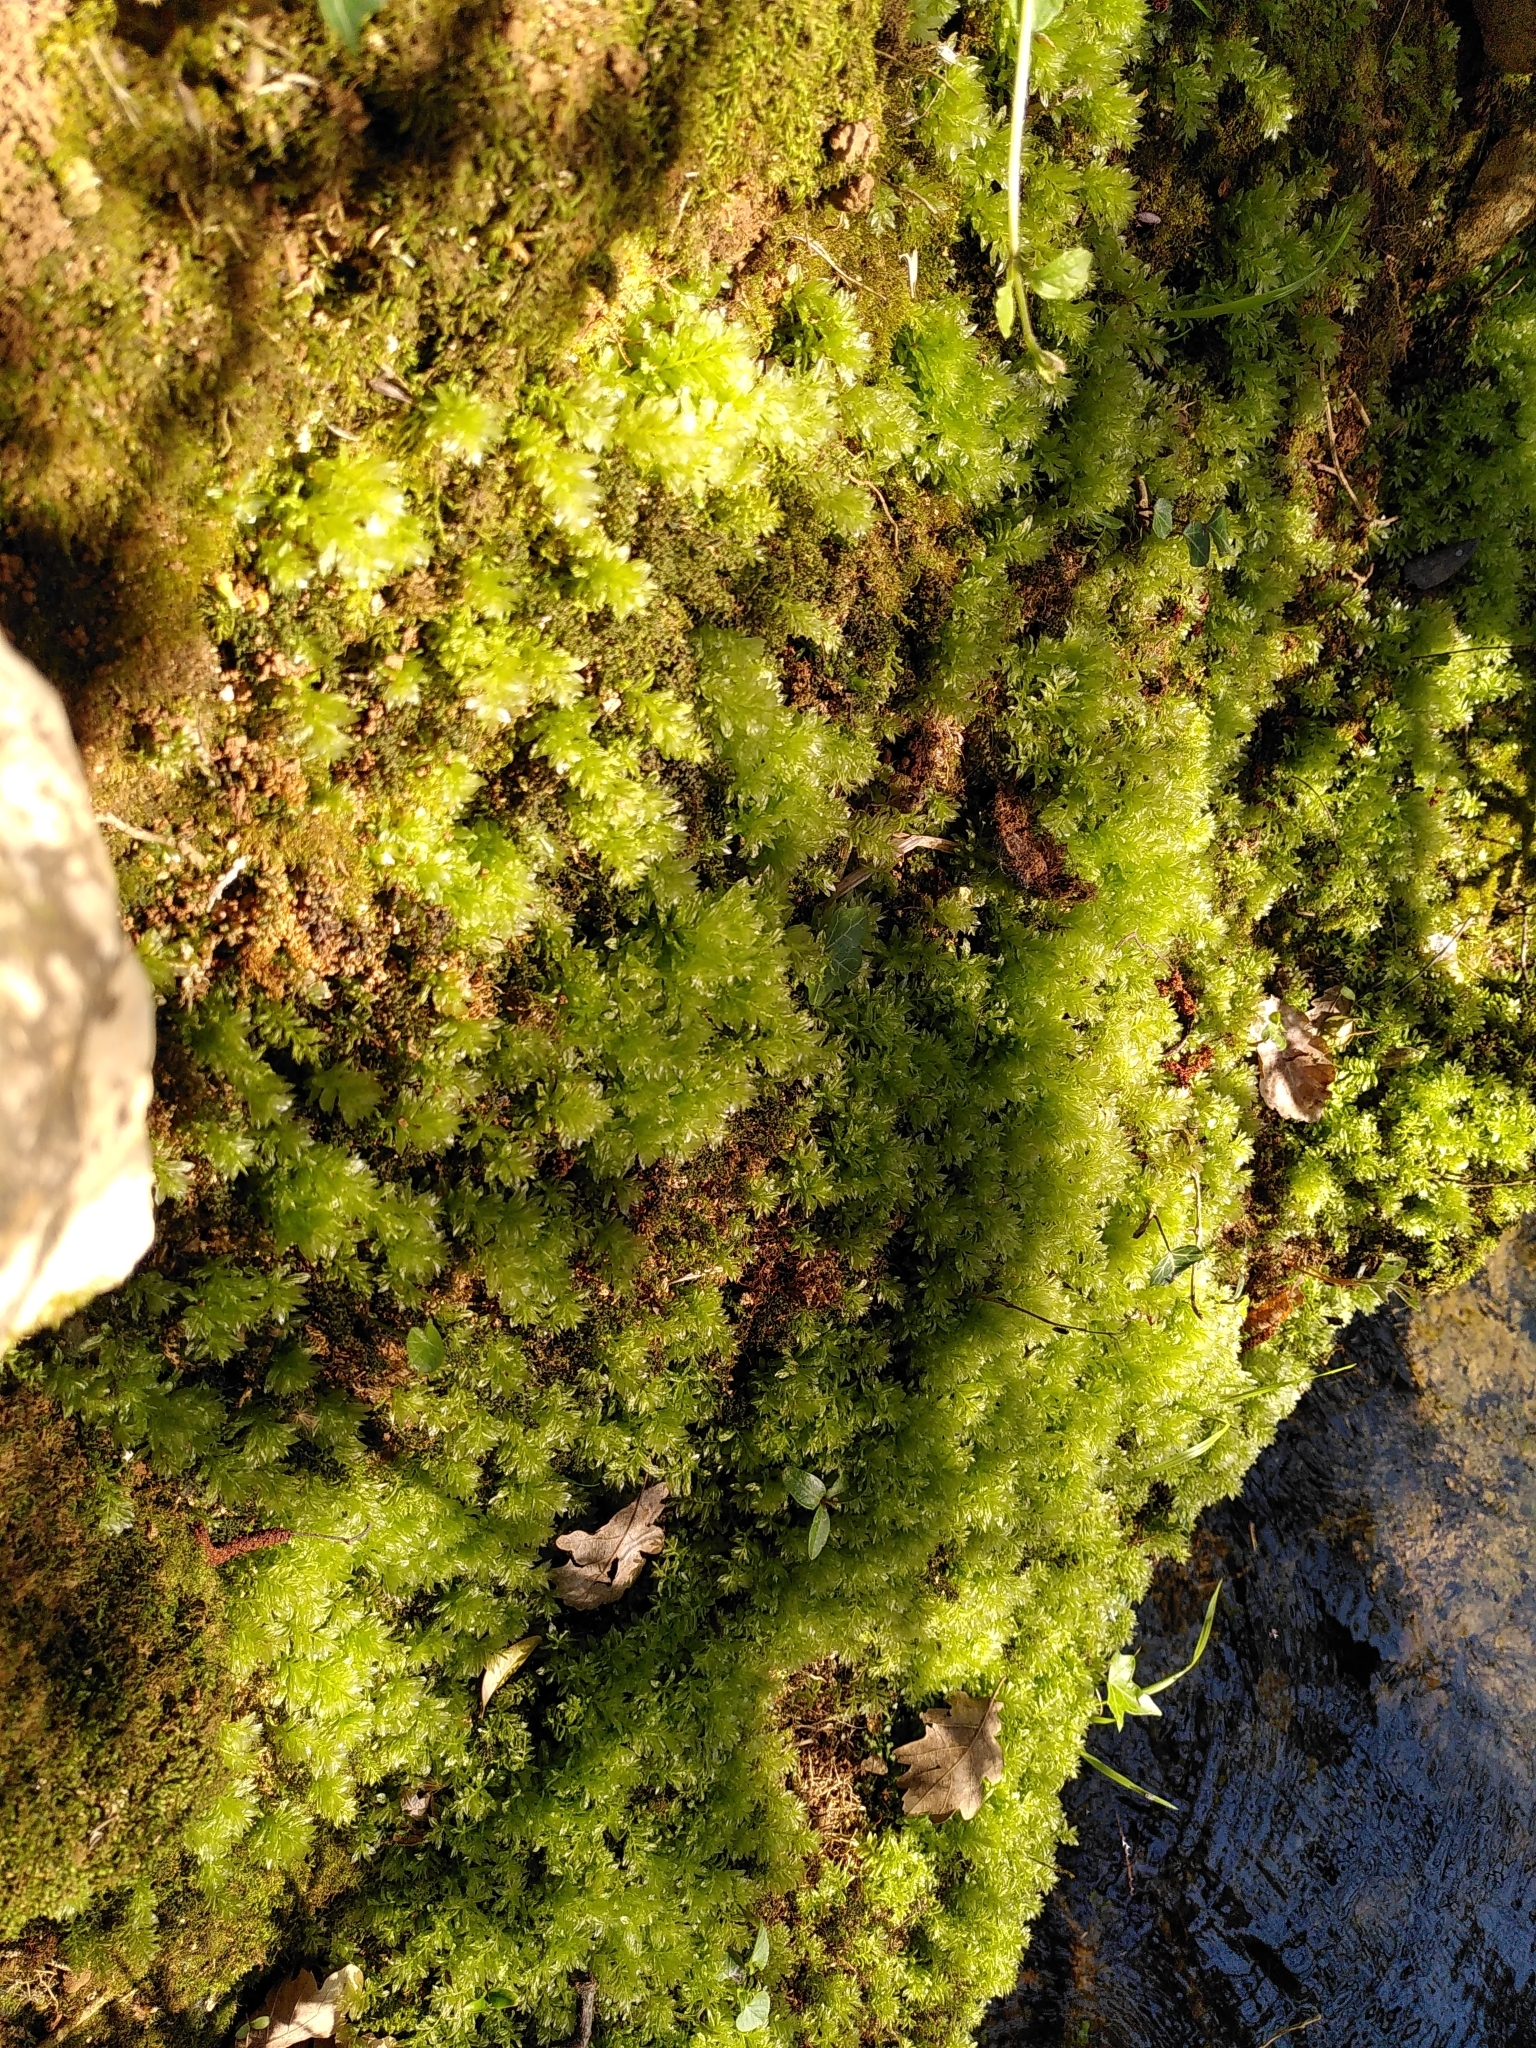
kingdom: Plantae
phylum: Bryophyta
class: Bryopsida
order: Bryales
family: Mniaceae
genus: Plagiomnium
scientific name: Plagiomnium undulatum
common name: Hart's-tongue thyme-moss
